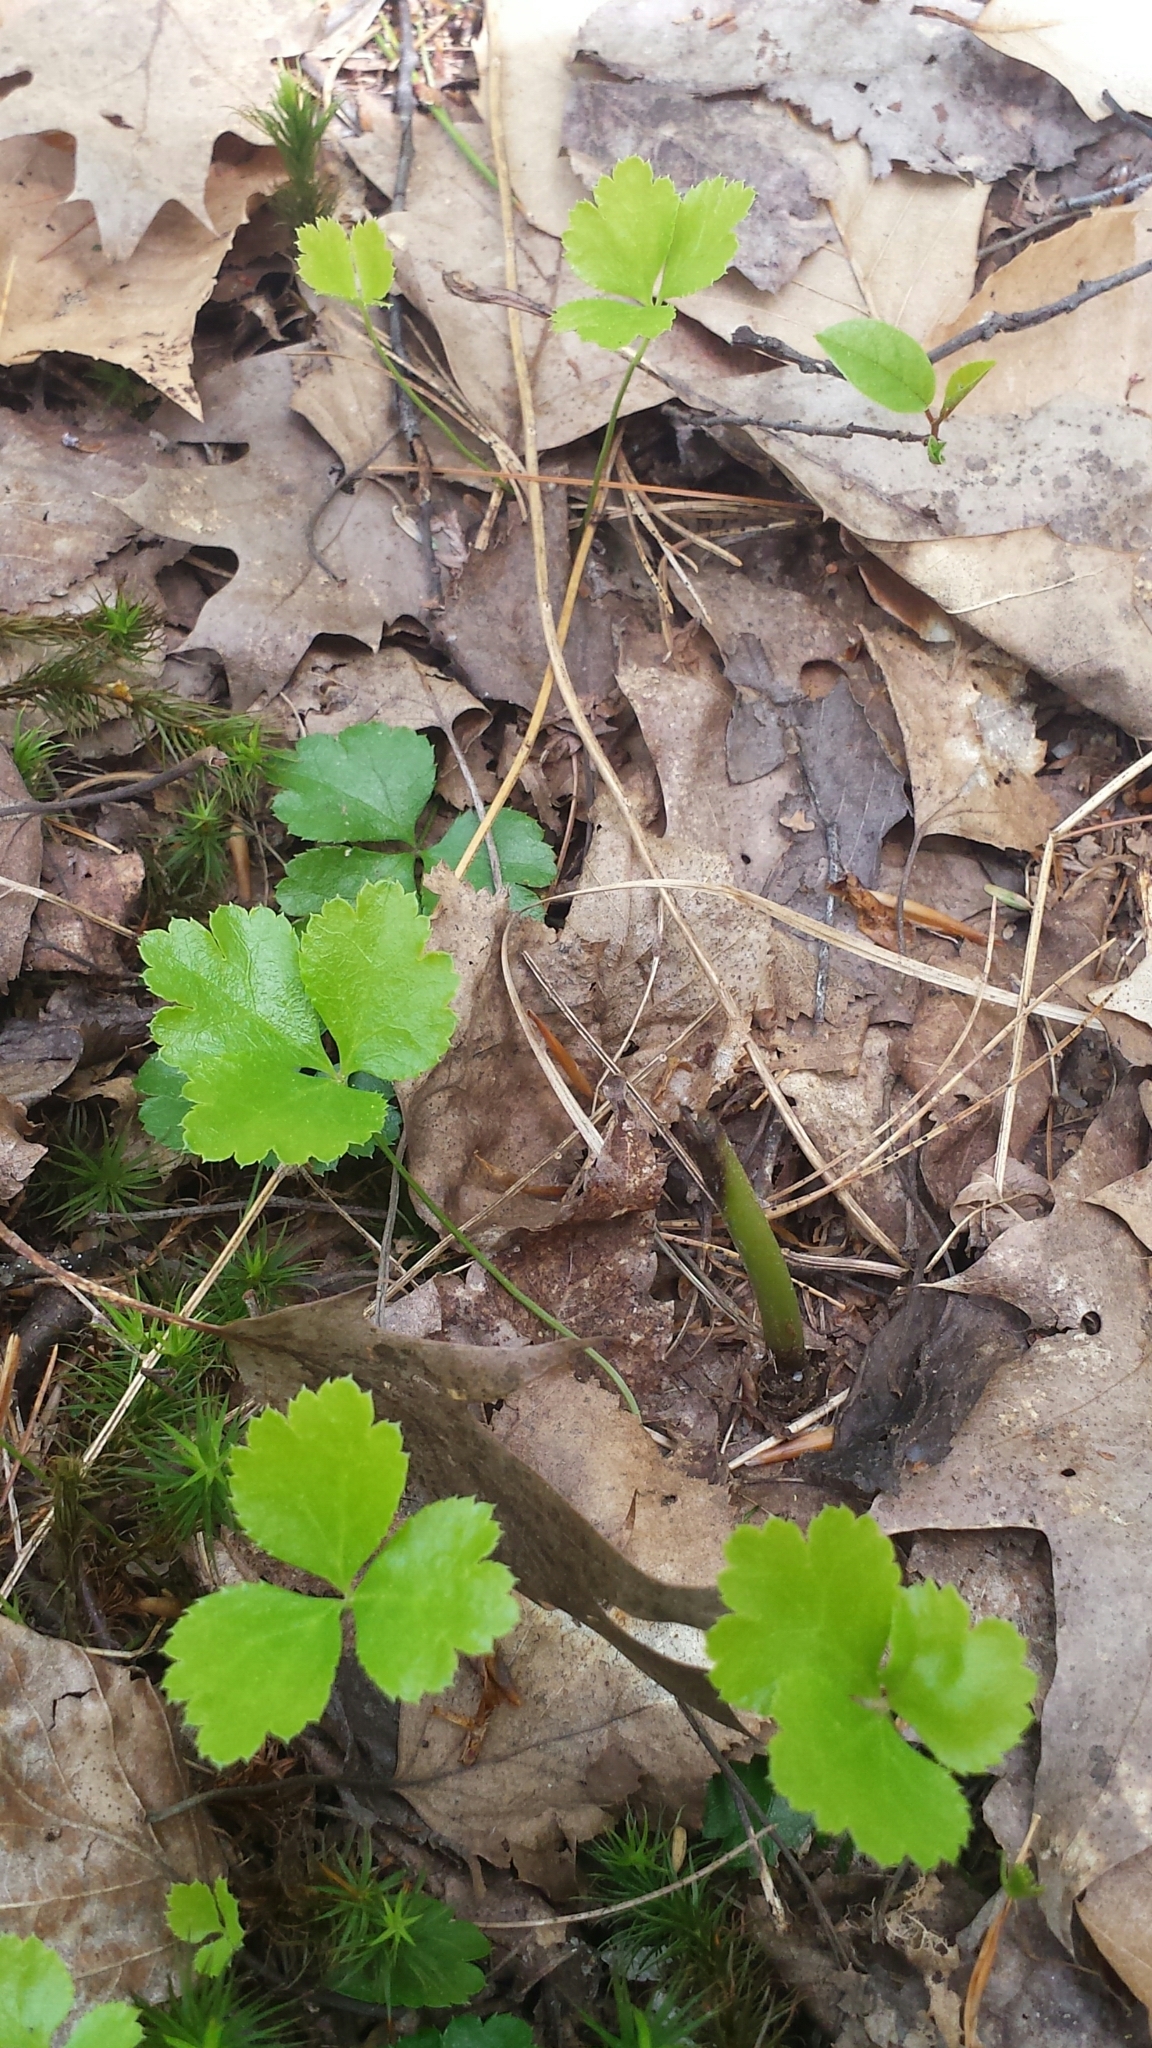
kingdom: Plantae
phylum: Tracheophyta
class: Magnoliopsida
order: Ranunculales
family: Ranunculaceae
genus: Coptis
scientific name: Coptis trifolia
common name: Canker-root
